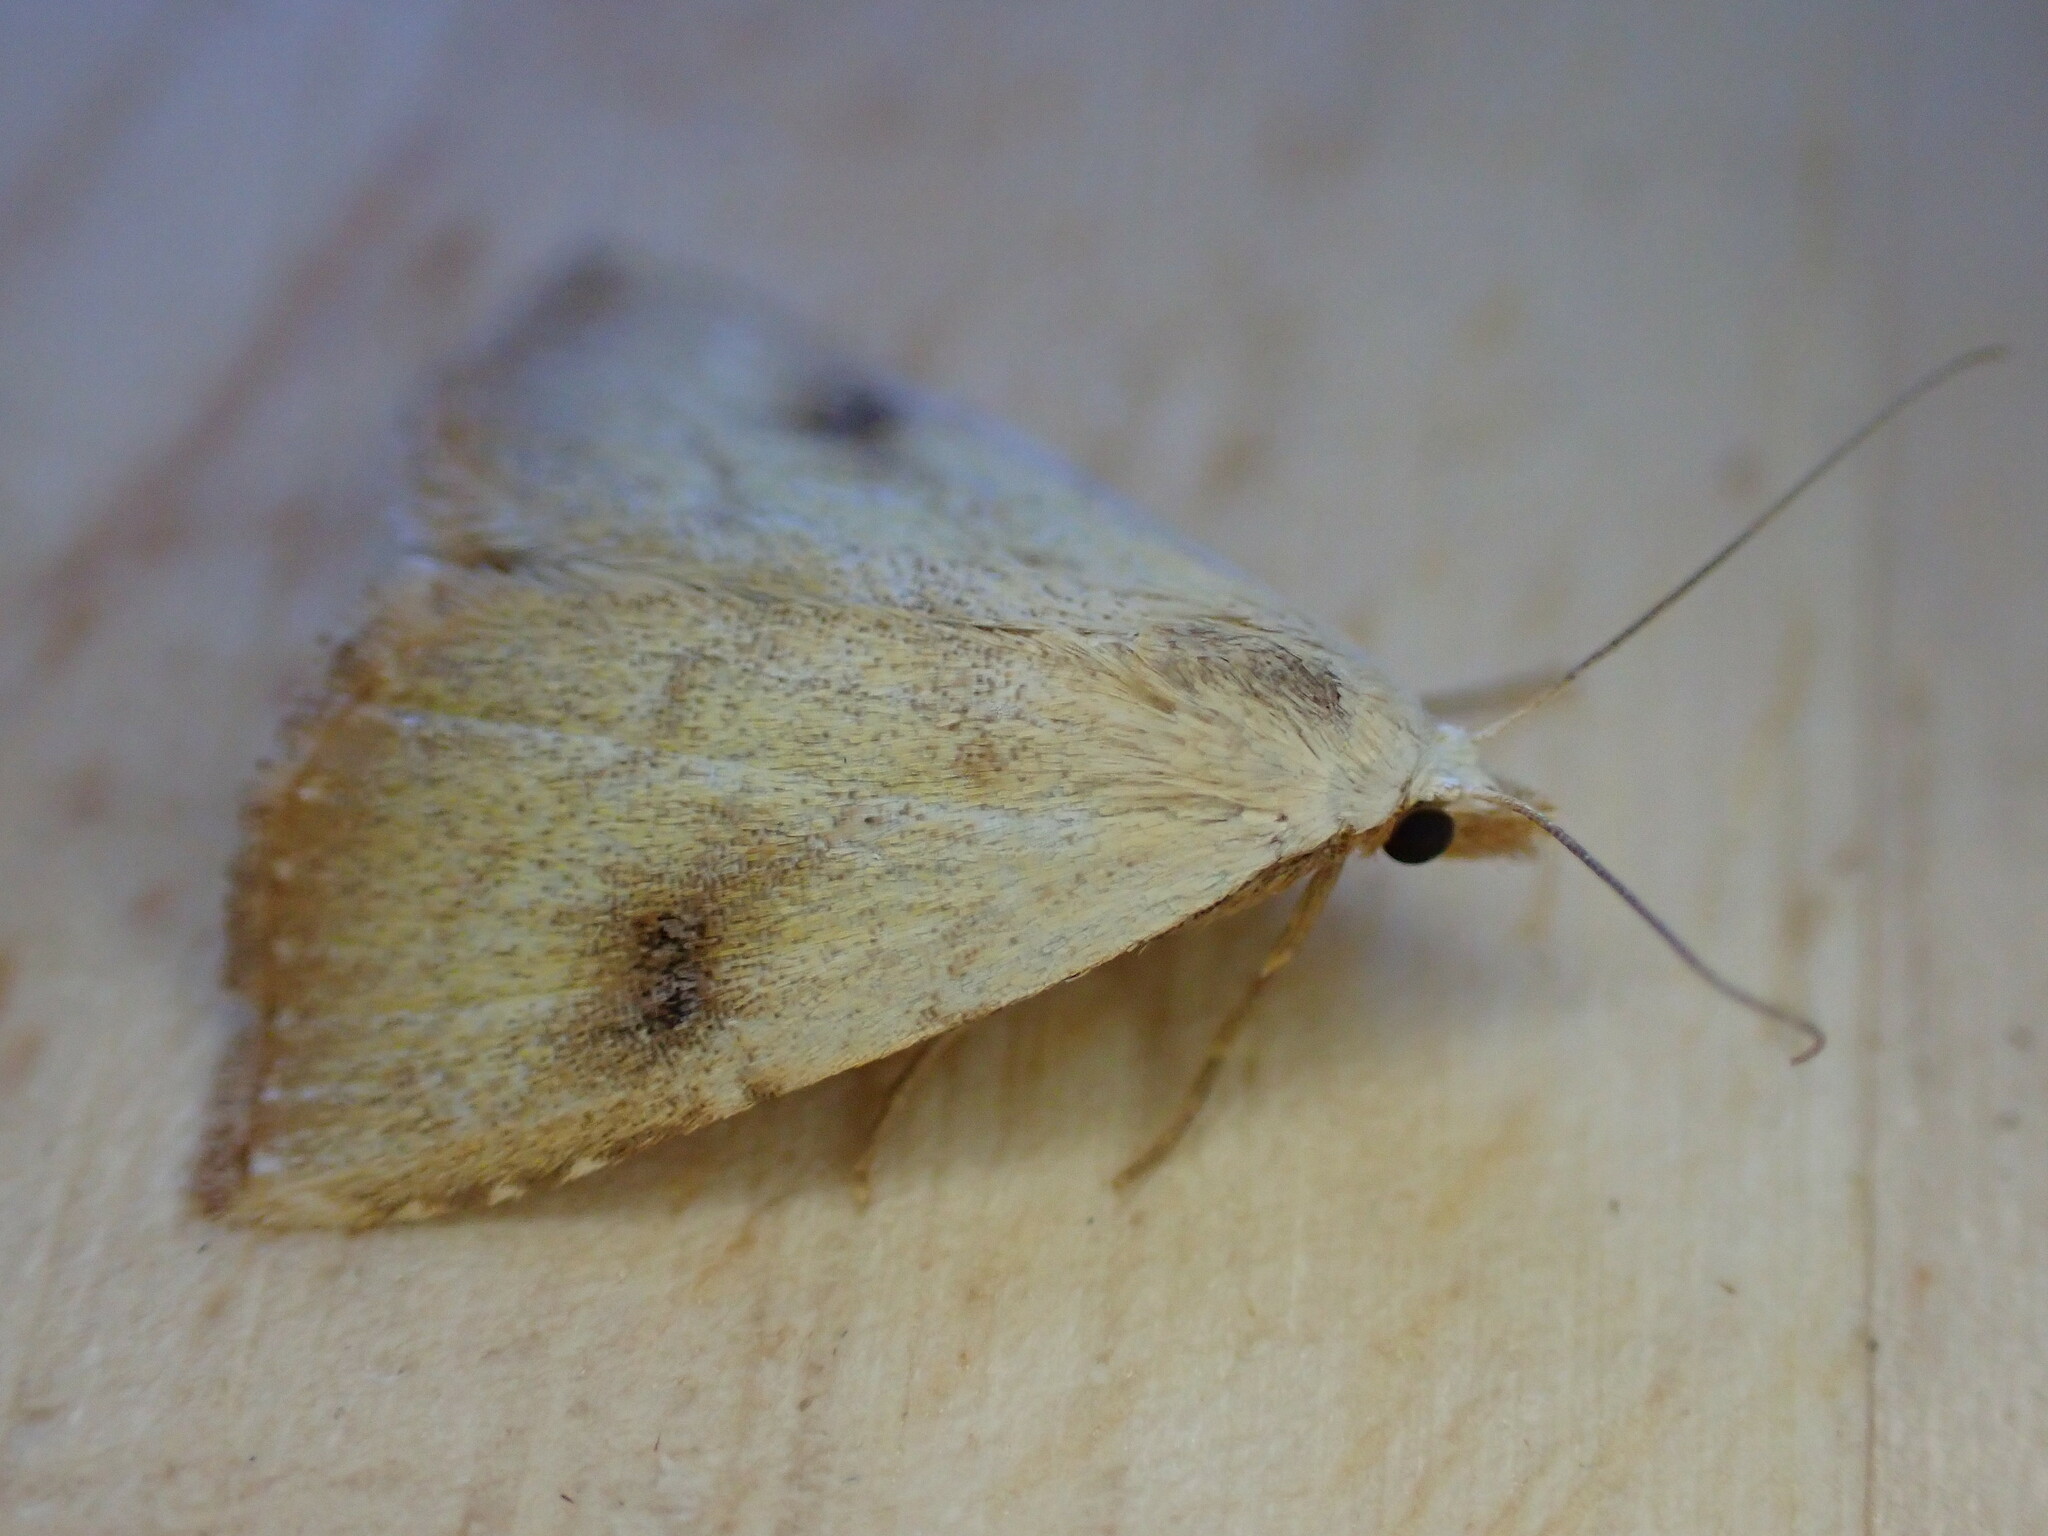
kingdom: Animalia
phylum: Arthropoda
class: Insecta
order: Lepidoptera
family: Erebidae
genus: Rivula
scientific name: Rivula sericealis
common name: Straw dot
